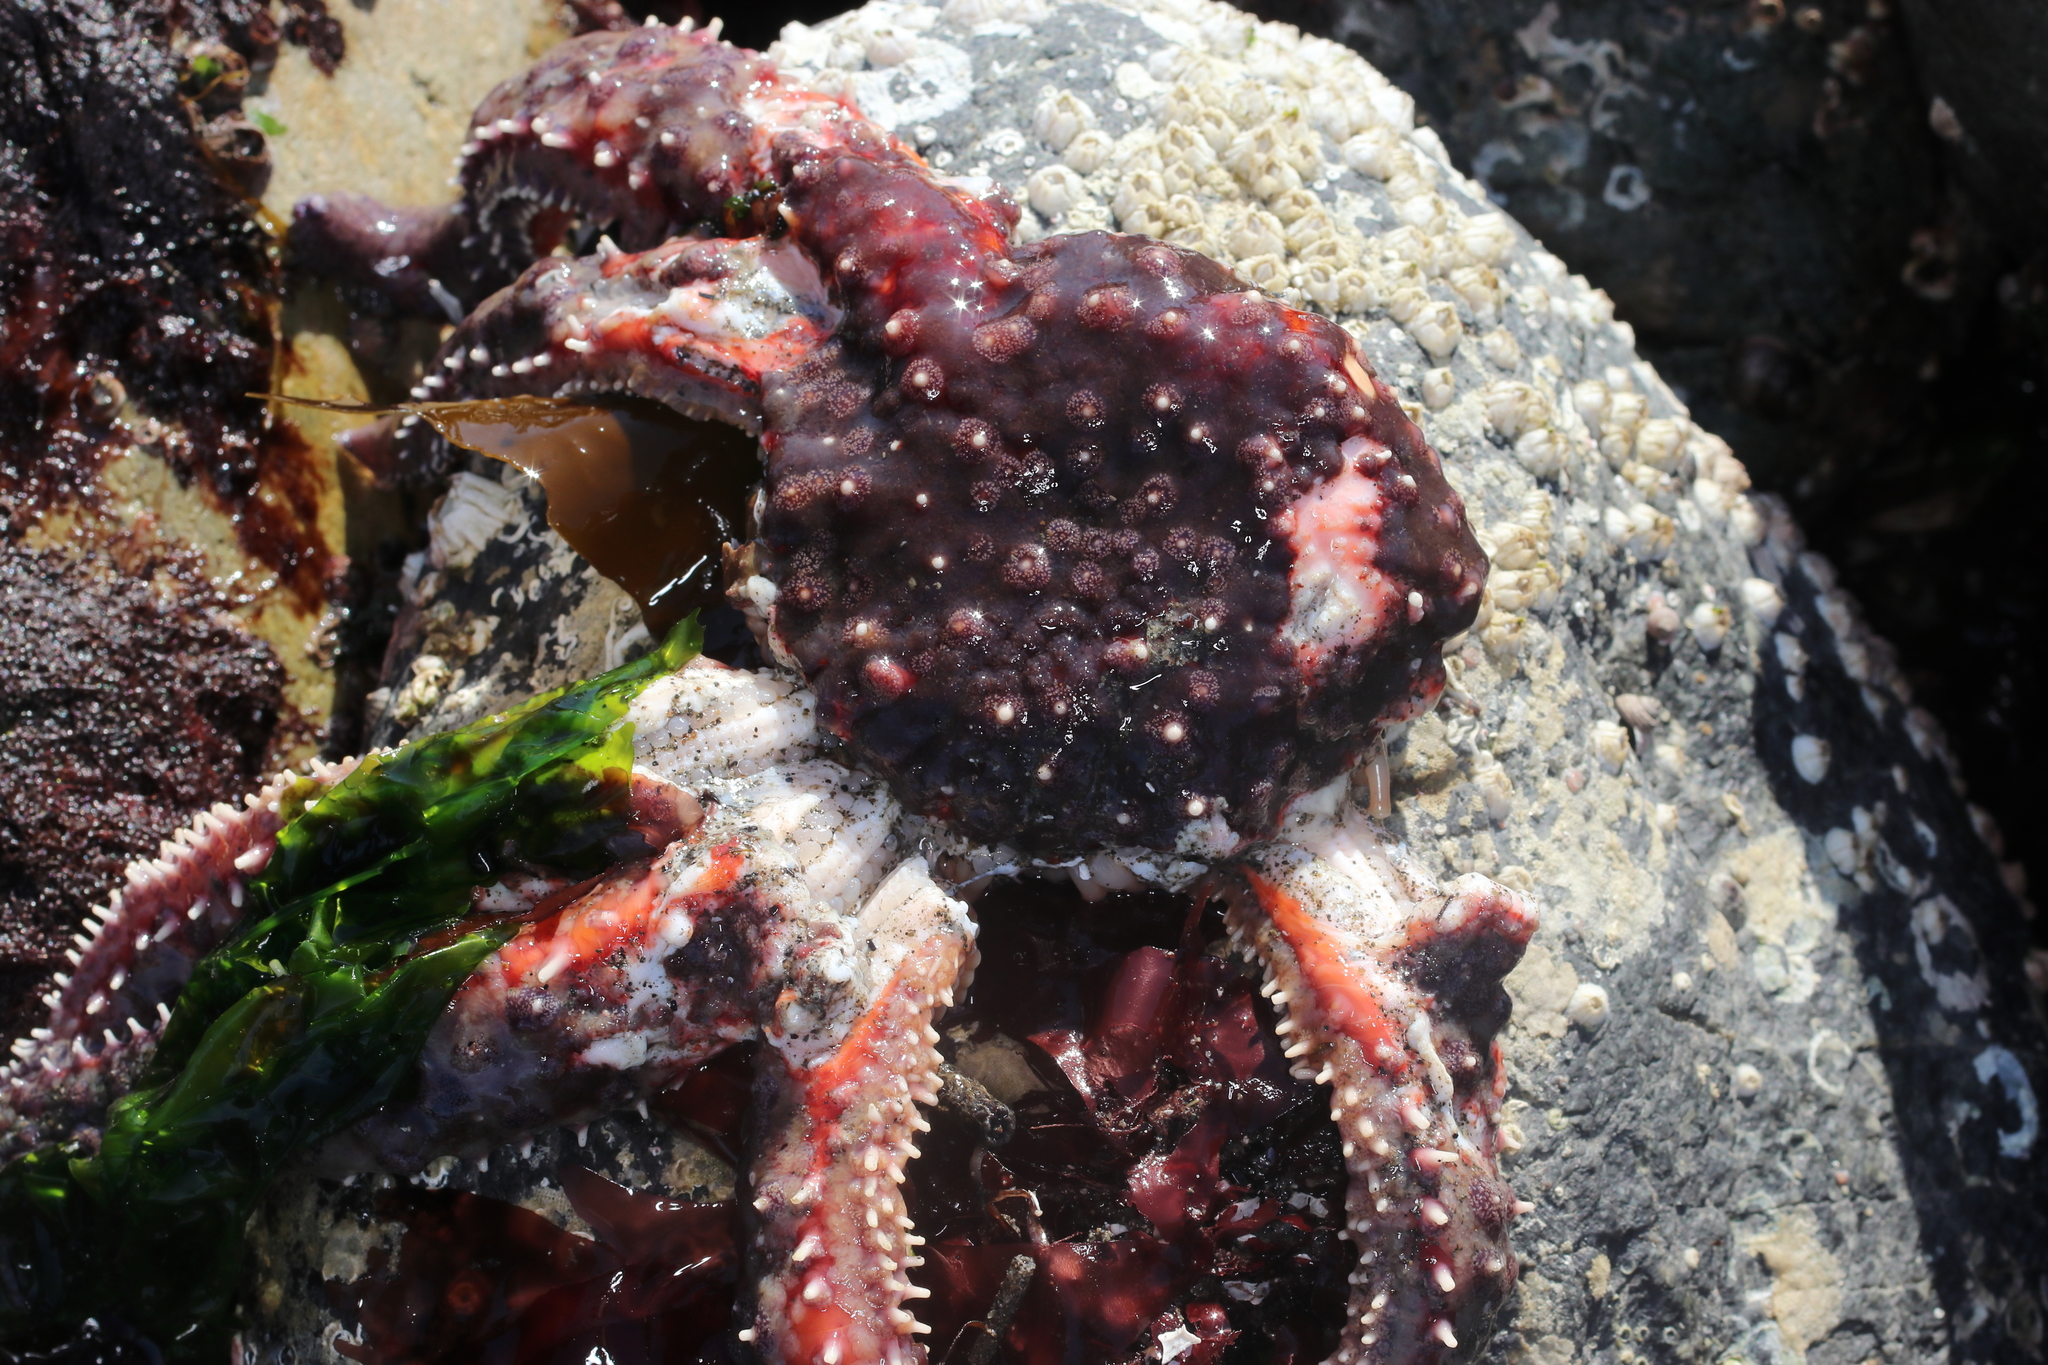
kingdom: Animalia
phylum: Echinodermata
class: Asteroidea
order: Forcipulatida
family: Asteriidae
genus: Pycnopodia
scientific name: Pycnopodia helianthoides
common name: Rag mop
